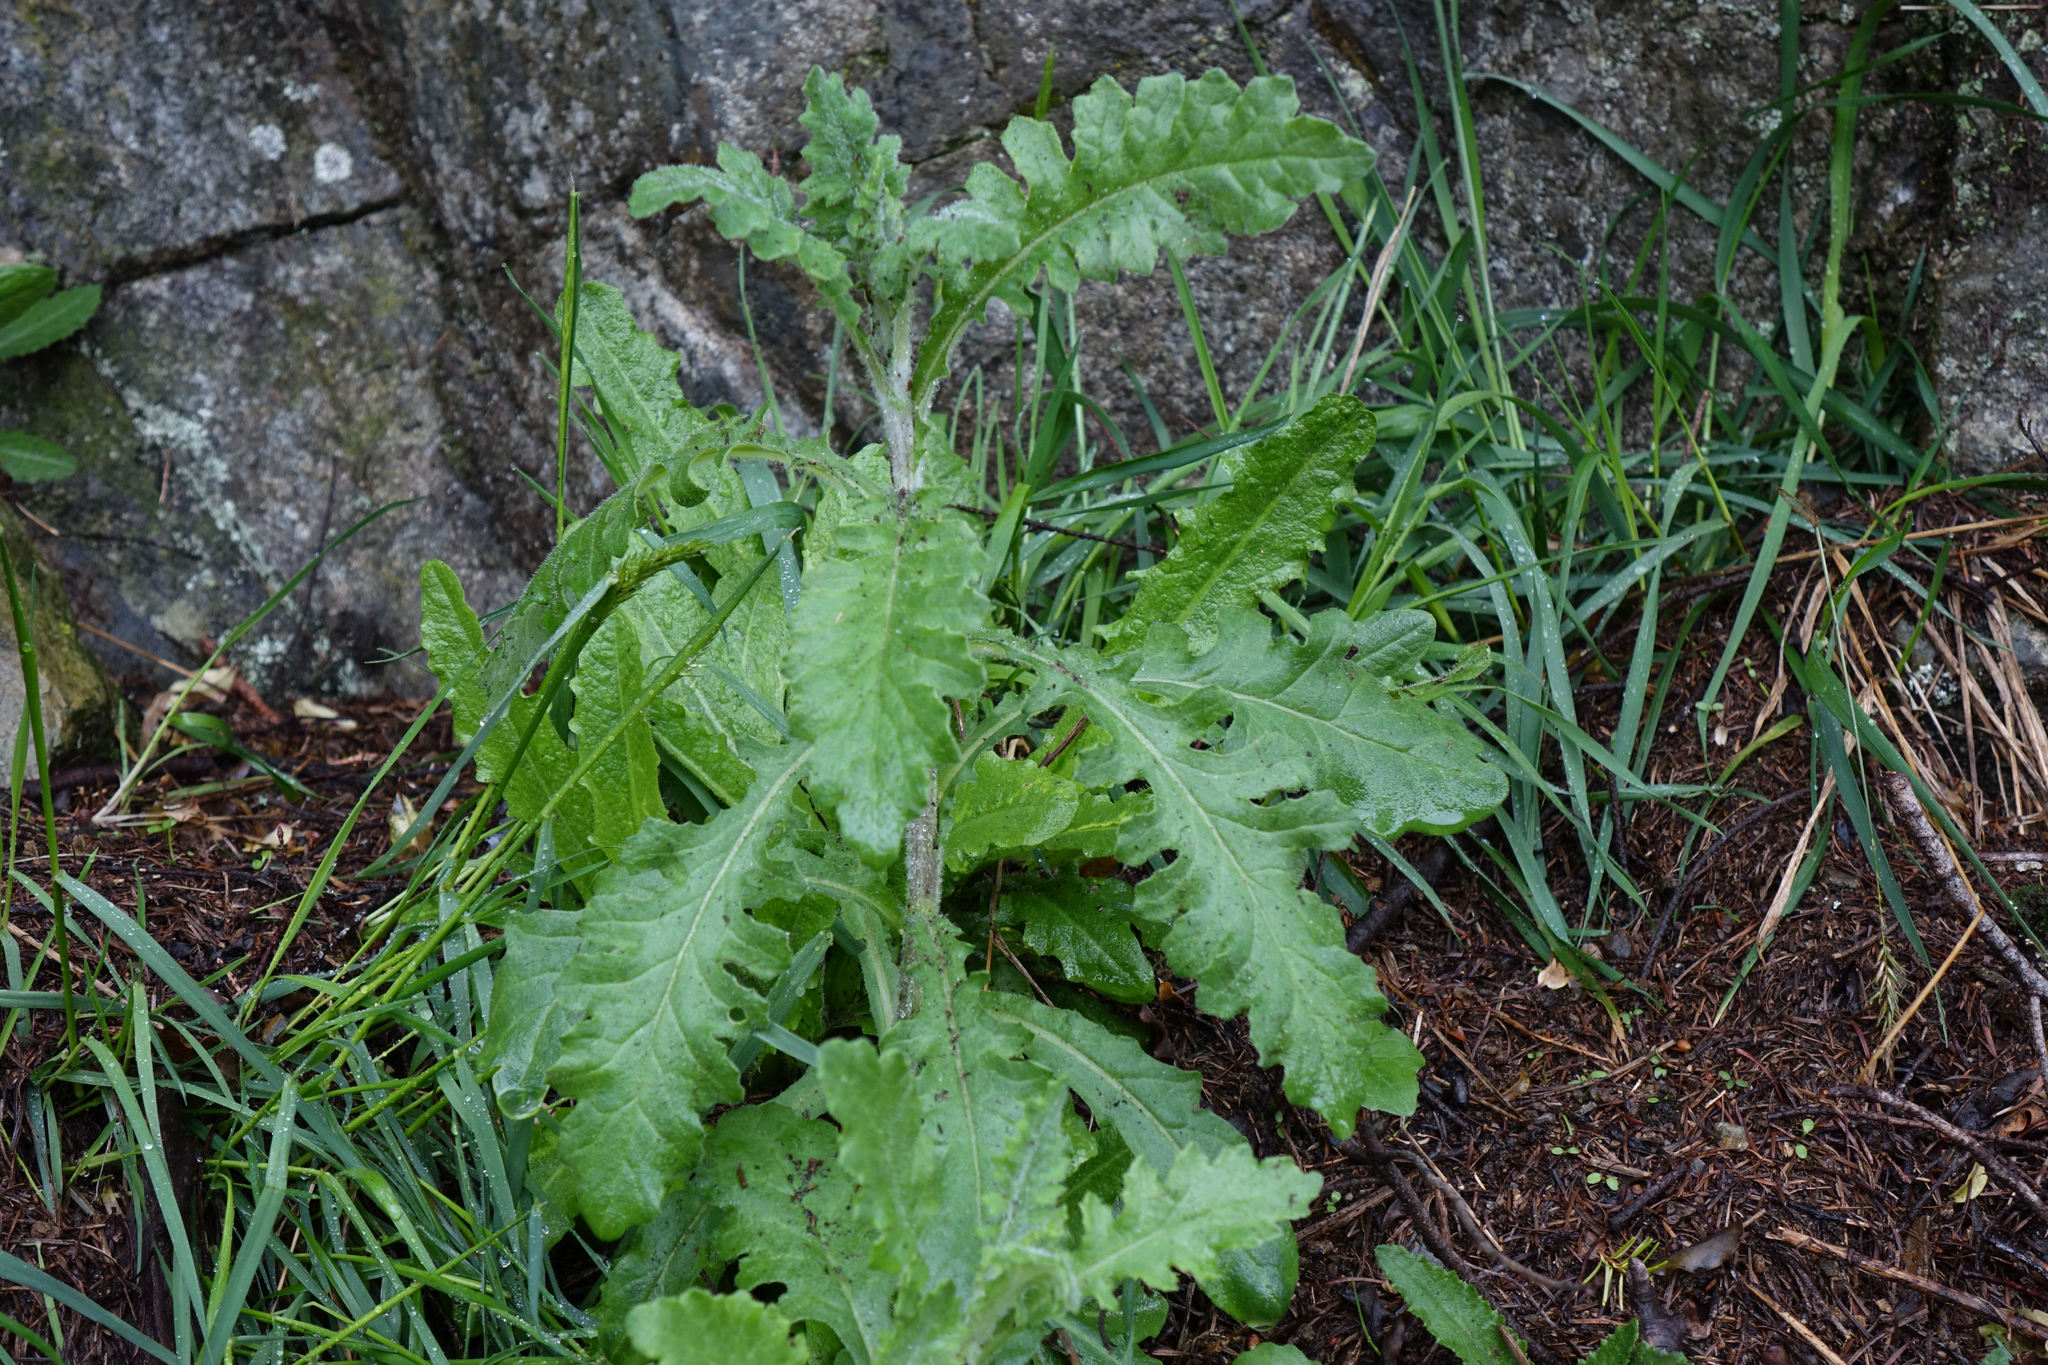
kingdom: Plantae
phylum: Tracheophyta
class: Magnoliopsida
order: Asterales
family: Asteraceae
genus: Senecio
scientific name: Senecio glomeratus
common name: Cutleaf burnweed
